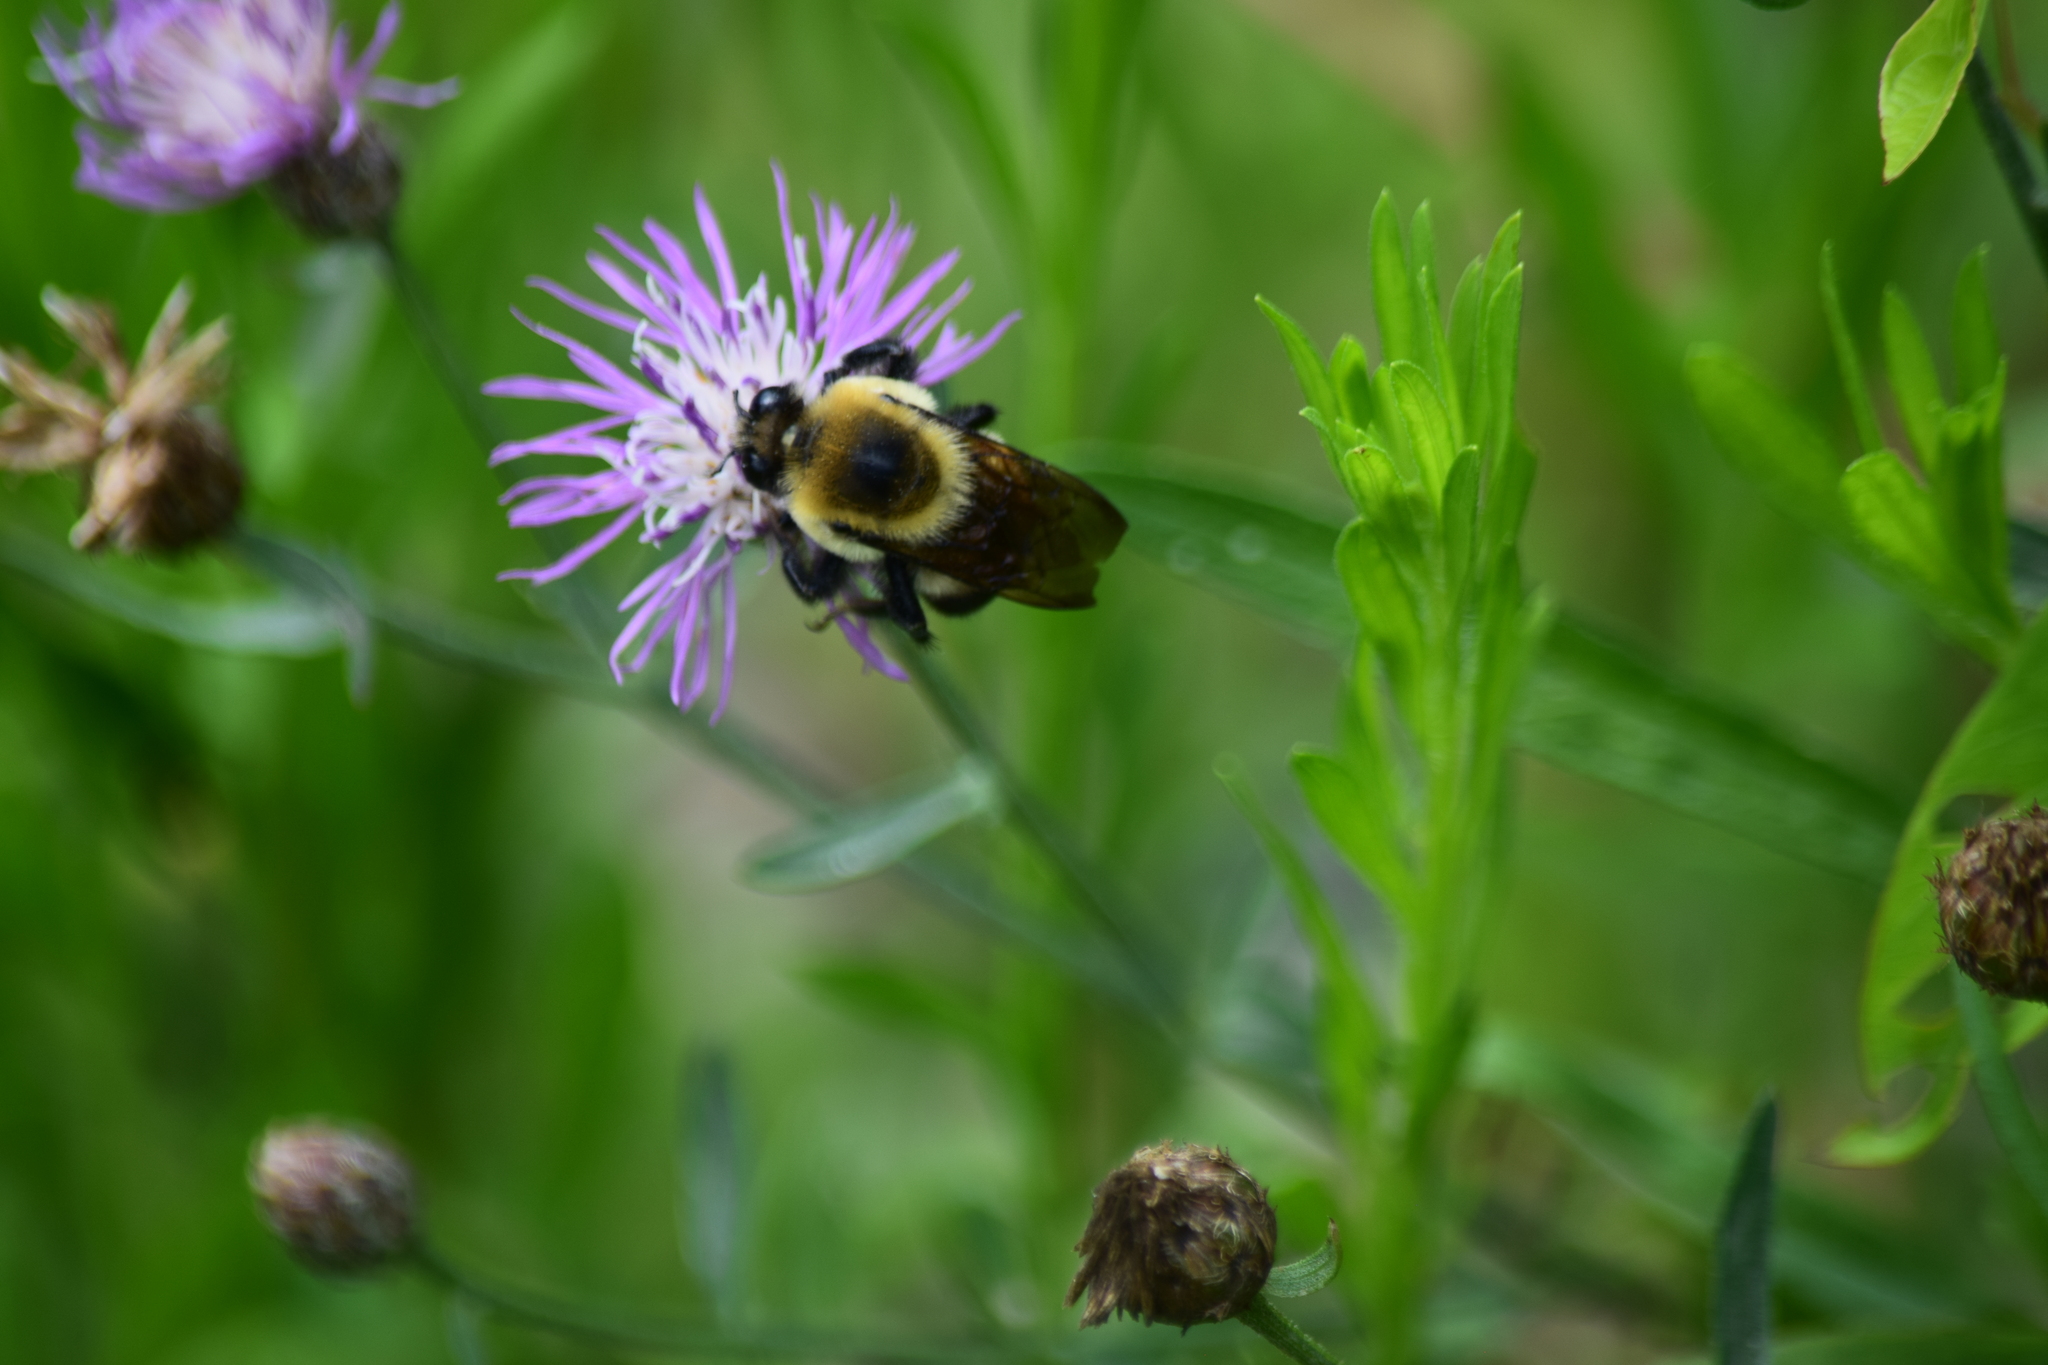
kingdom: Animalia
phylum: Arthropoda
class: Insecta
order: Hymenoptera
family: Apidae
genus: Bombus
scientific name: Bombus griseocollis
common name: Brown-belted bumble bee
